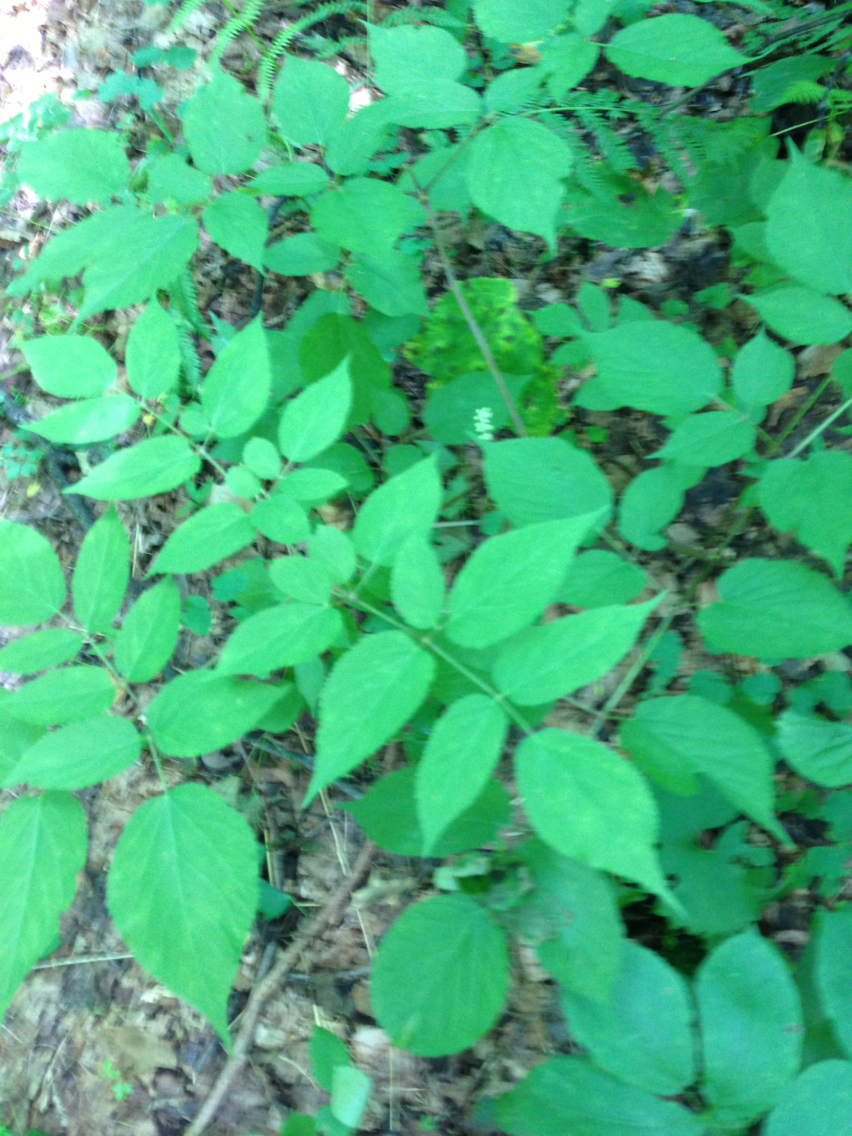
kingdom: Plantae
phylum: Tracheophyta
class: Magnoliopsida
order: Apiales
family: Araliaceae
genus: Aralia
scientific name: Aralia racemosa
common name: American-spikenard
